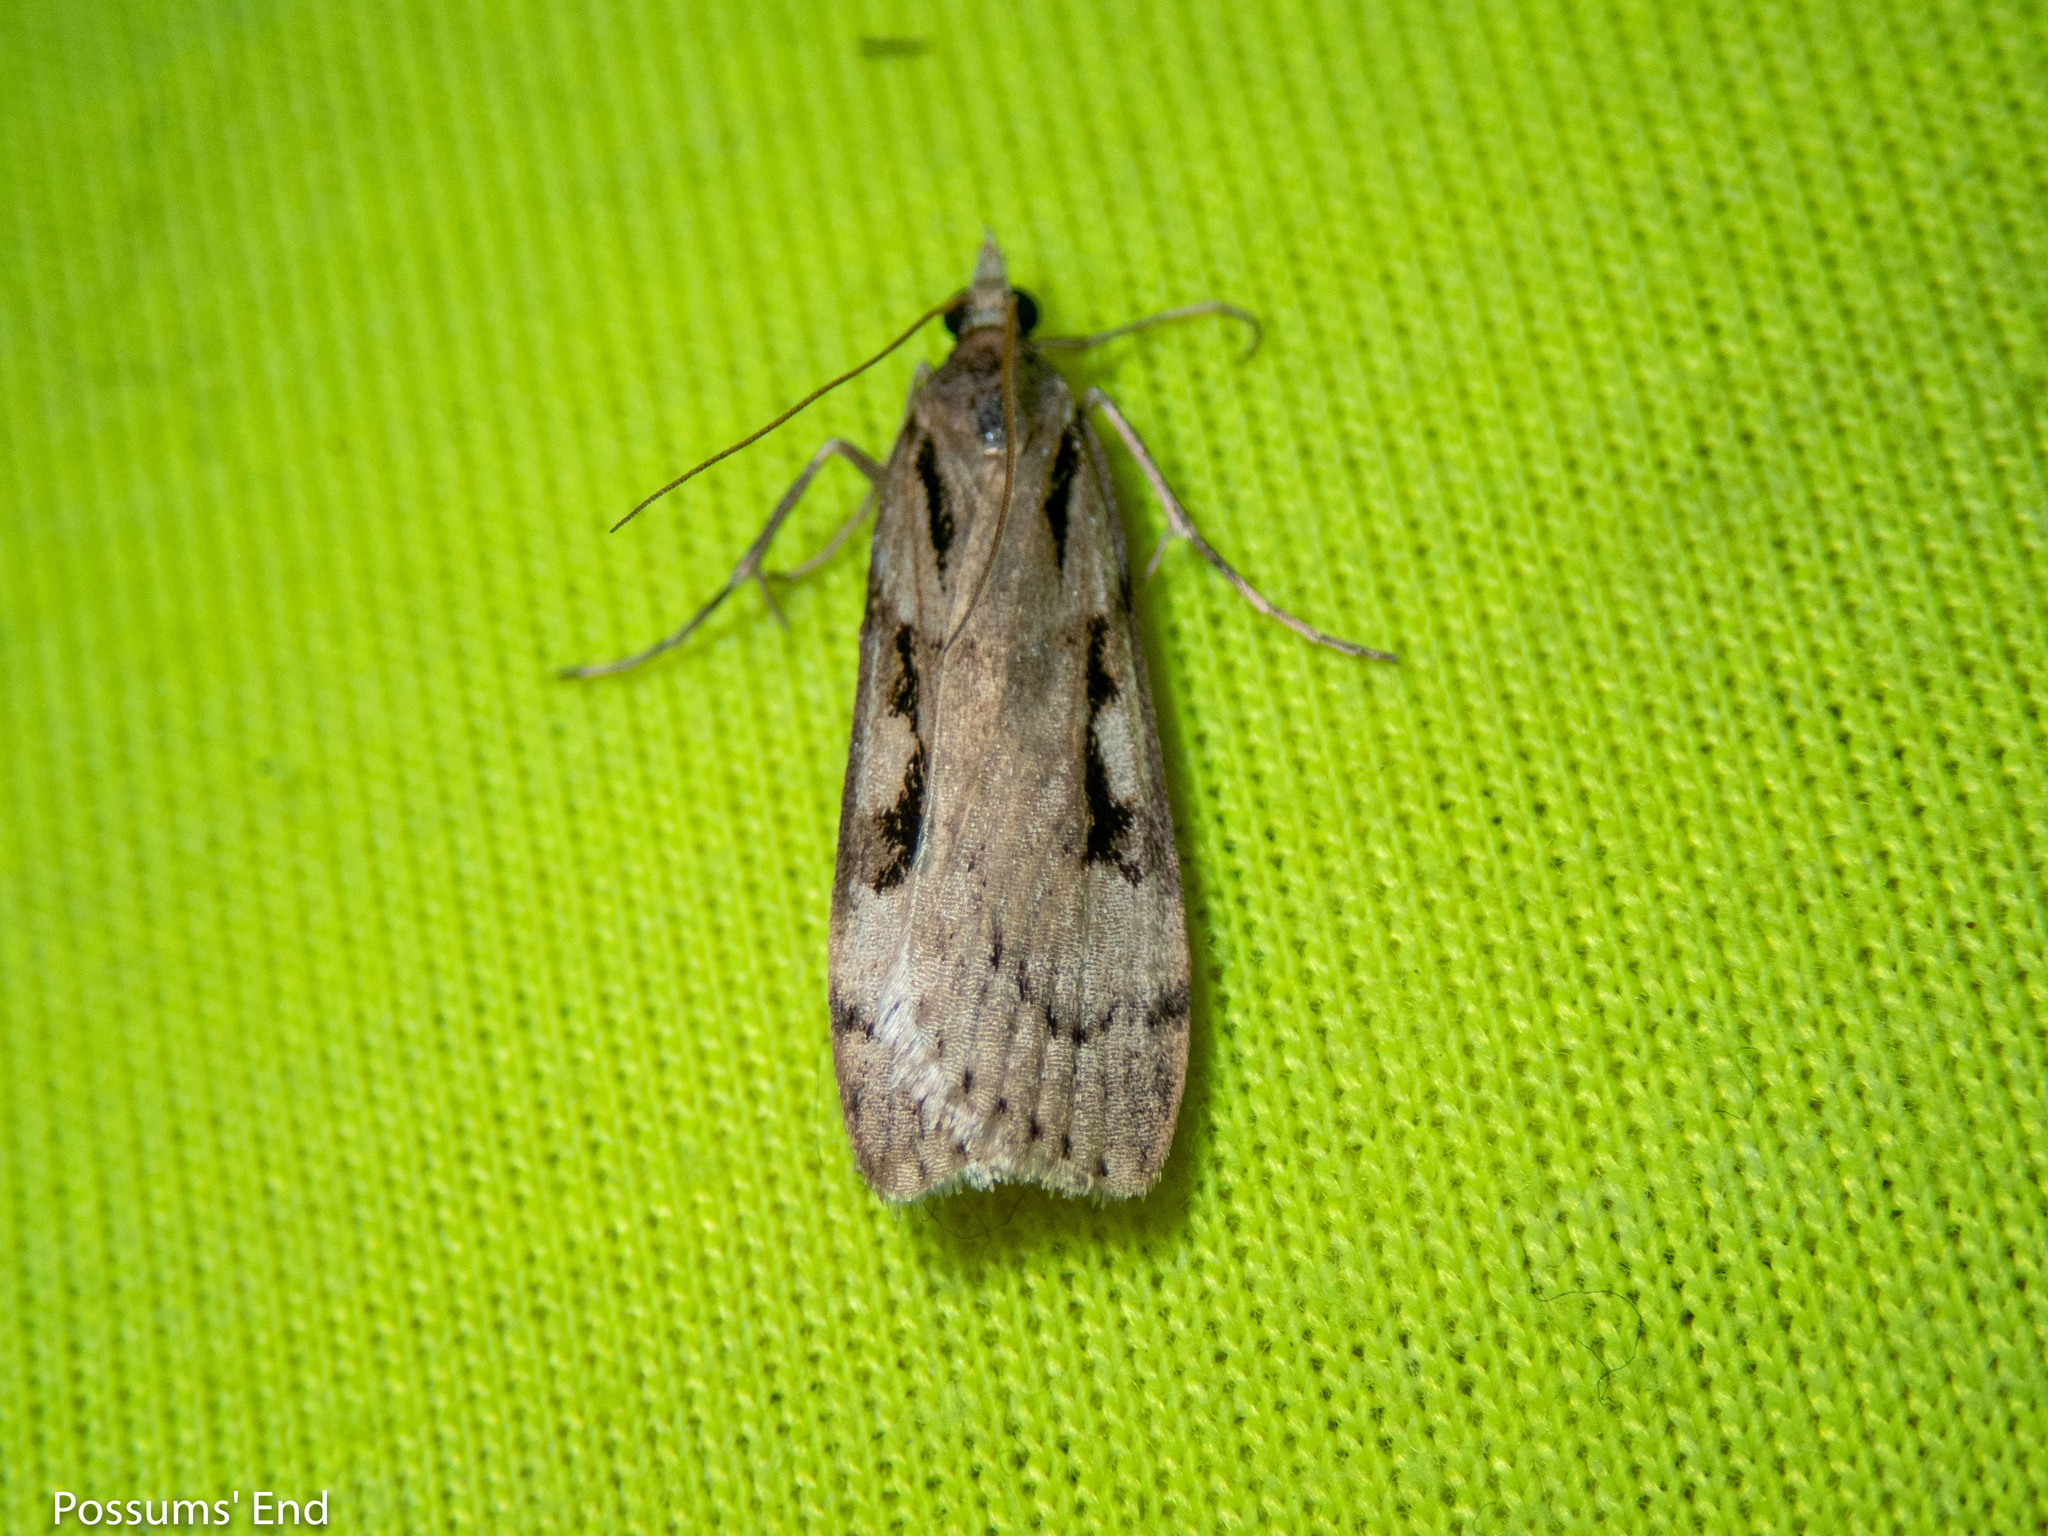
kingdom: Animalia
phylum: Arthropoda
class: Insecta
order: Lepidoptera
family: Crambidae
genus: Scoparia
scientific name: Scoparia scripta
